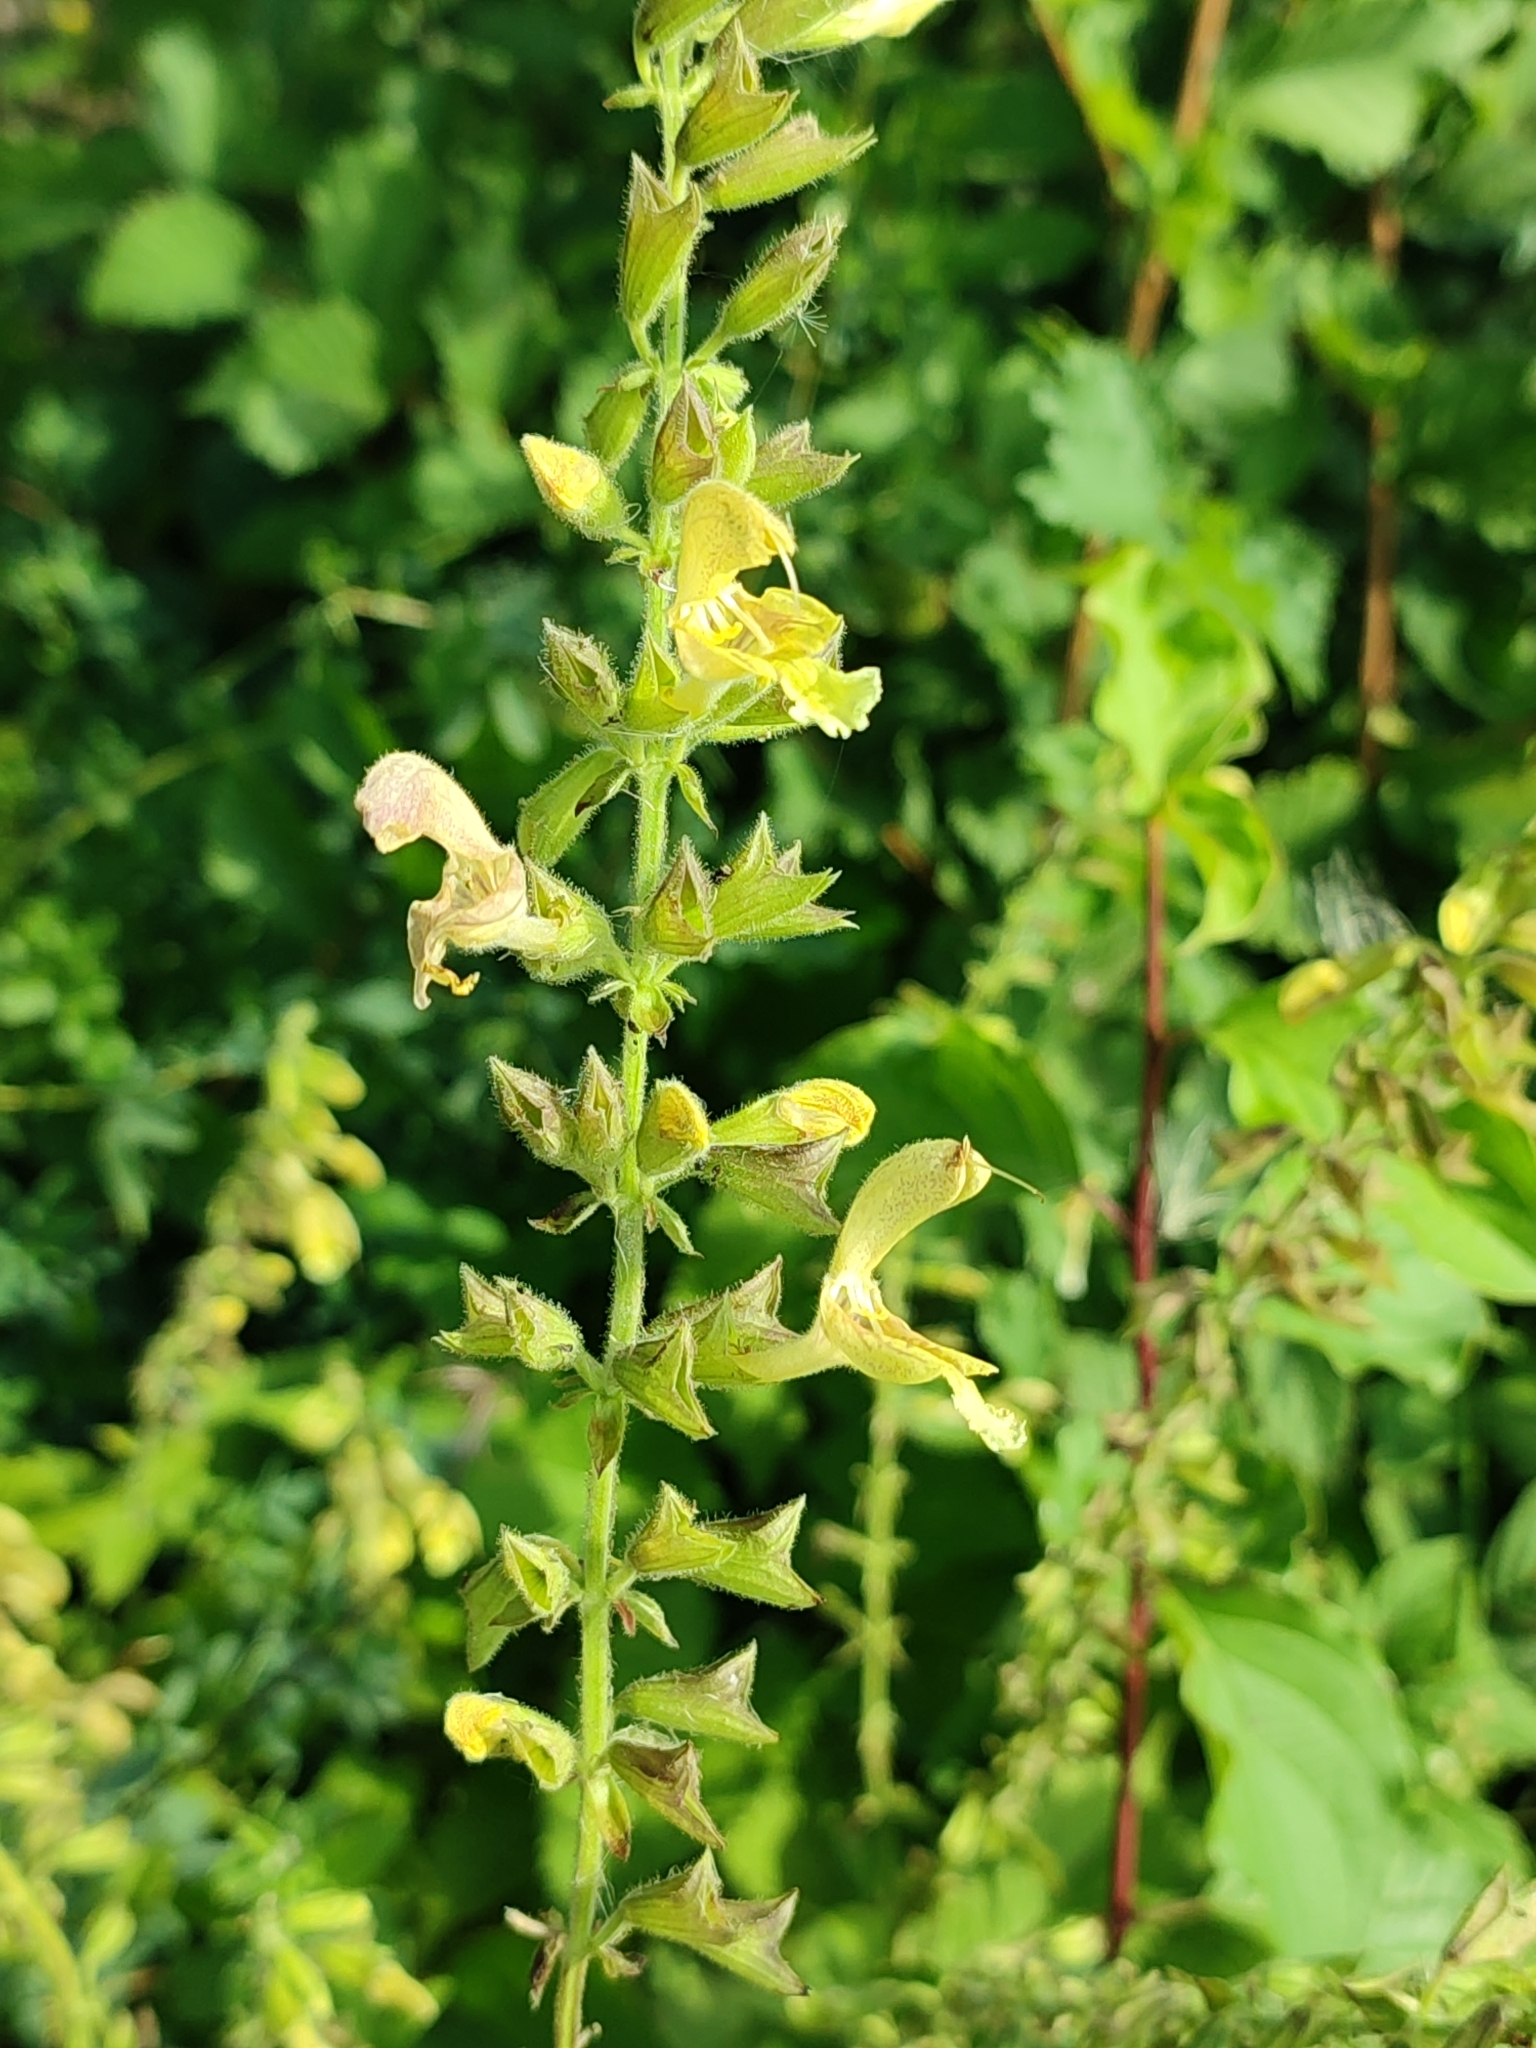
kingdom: Plantae
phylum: Tracheophyta
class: Magnoliopsida
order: Lamiales
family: Lamiaceae
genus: Salvia
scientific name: Salvia glutinosa
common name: Sticky clary
